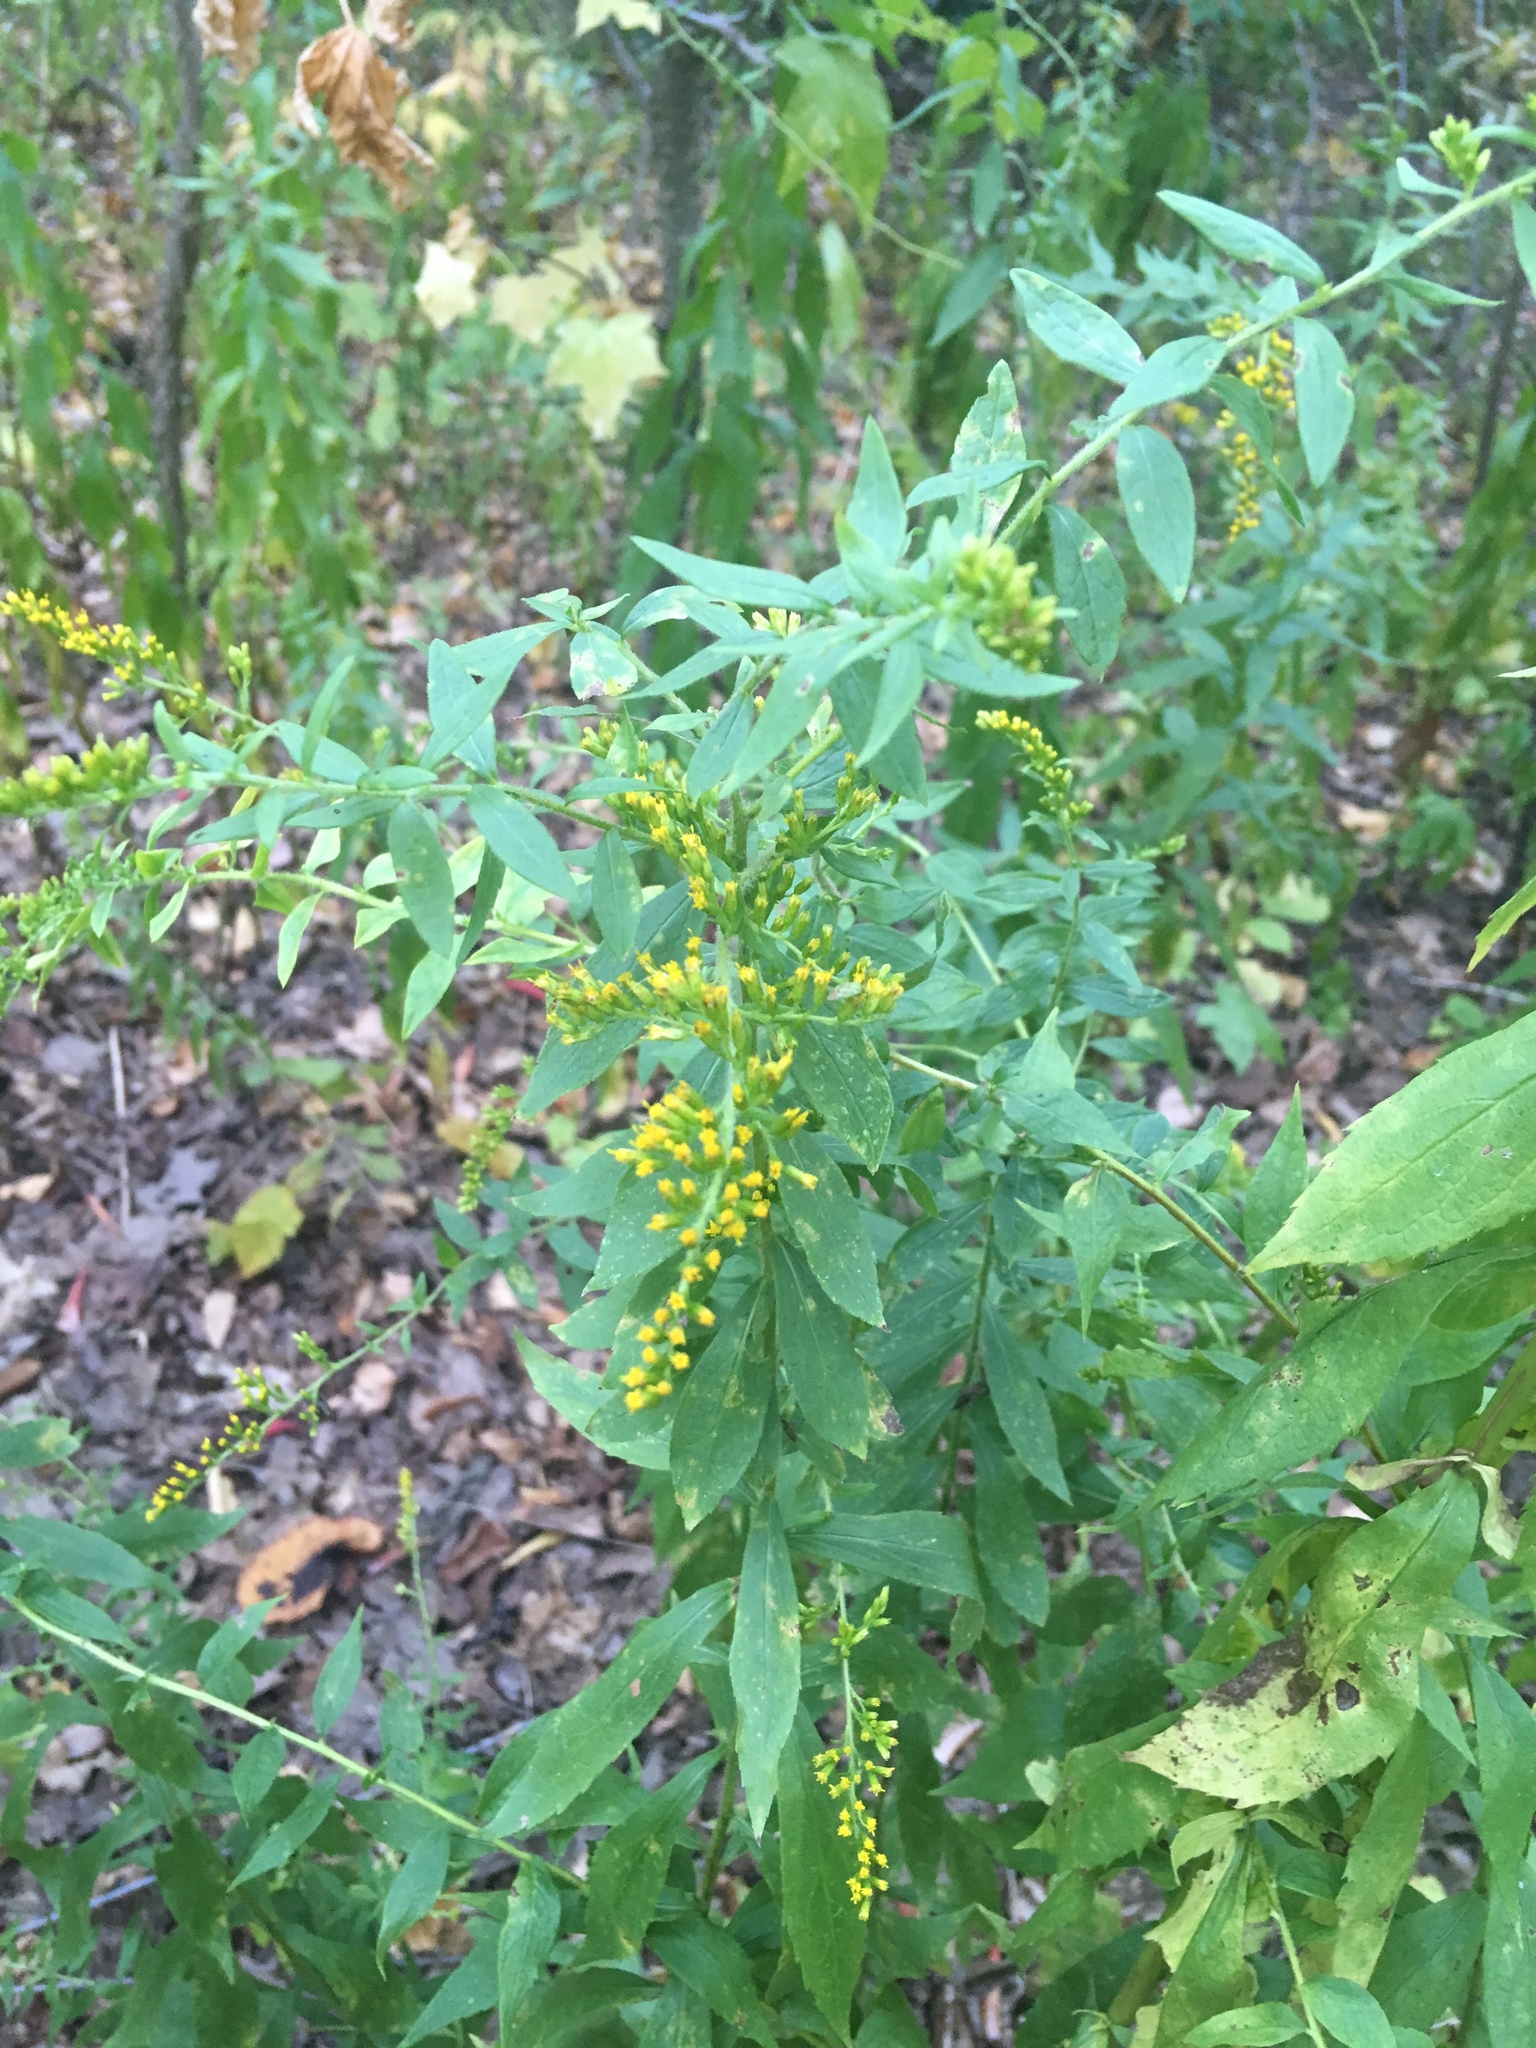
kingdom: Plantae
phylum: Tracheophyta
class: Magnoliopsida
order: Asterales
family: Asteraceae
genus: Solidago
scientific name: Solidago rugosa
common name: Rough-stemmed goldenrod
